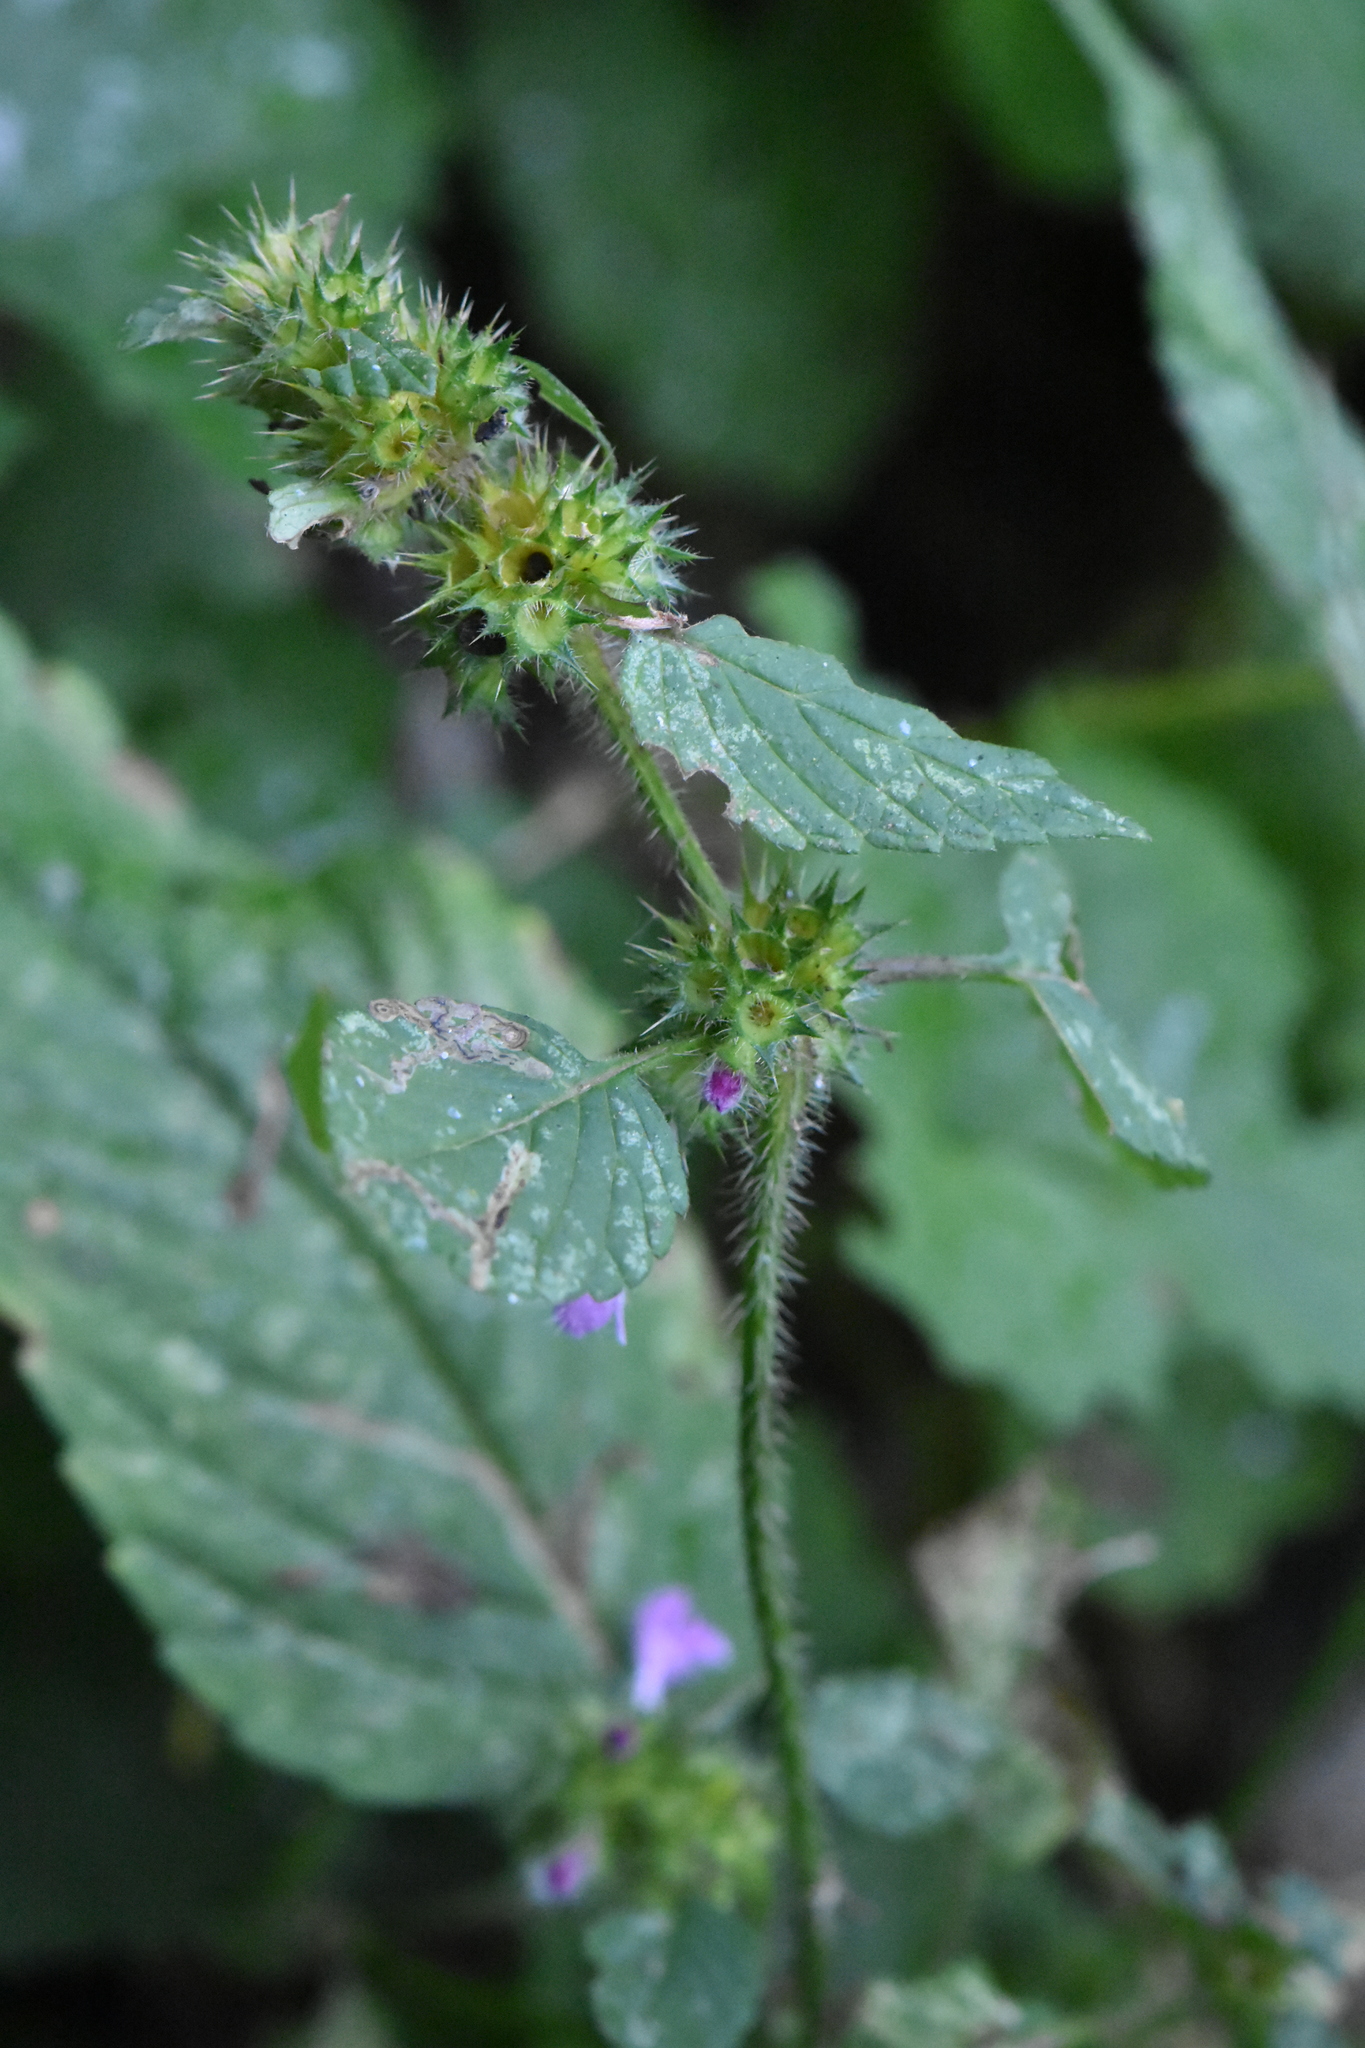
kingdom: Plantae
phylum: Tracheophyta
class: Magnoliopsida
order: Lamiales
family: Lamiaceae
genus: Galeopsis
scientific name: Galeopsis
